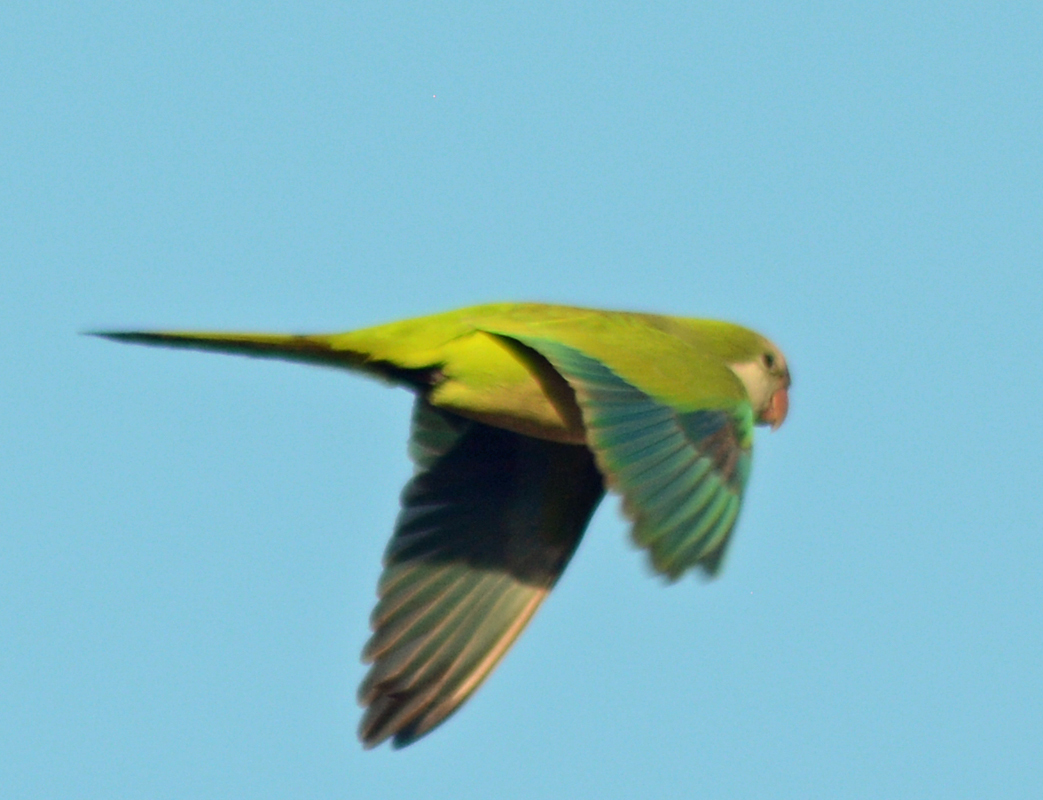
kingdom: Animalia
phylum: Chordata
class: Aves
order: Psittaciformes
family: Psittacidae
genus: Myiopsitta
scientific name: Myiopsitta monachus
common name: Monk parakeet
